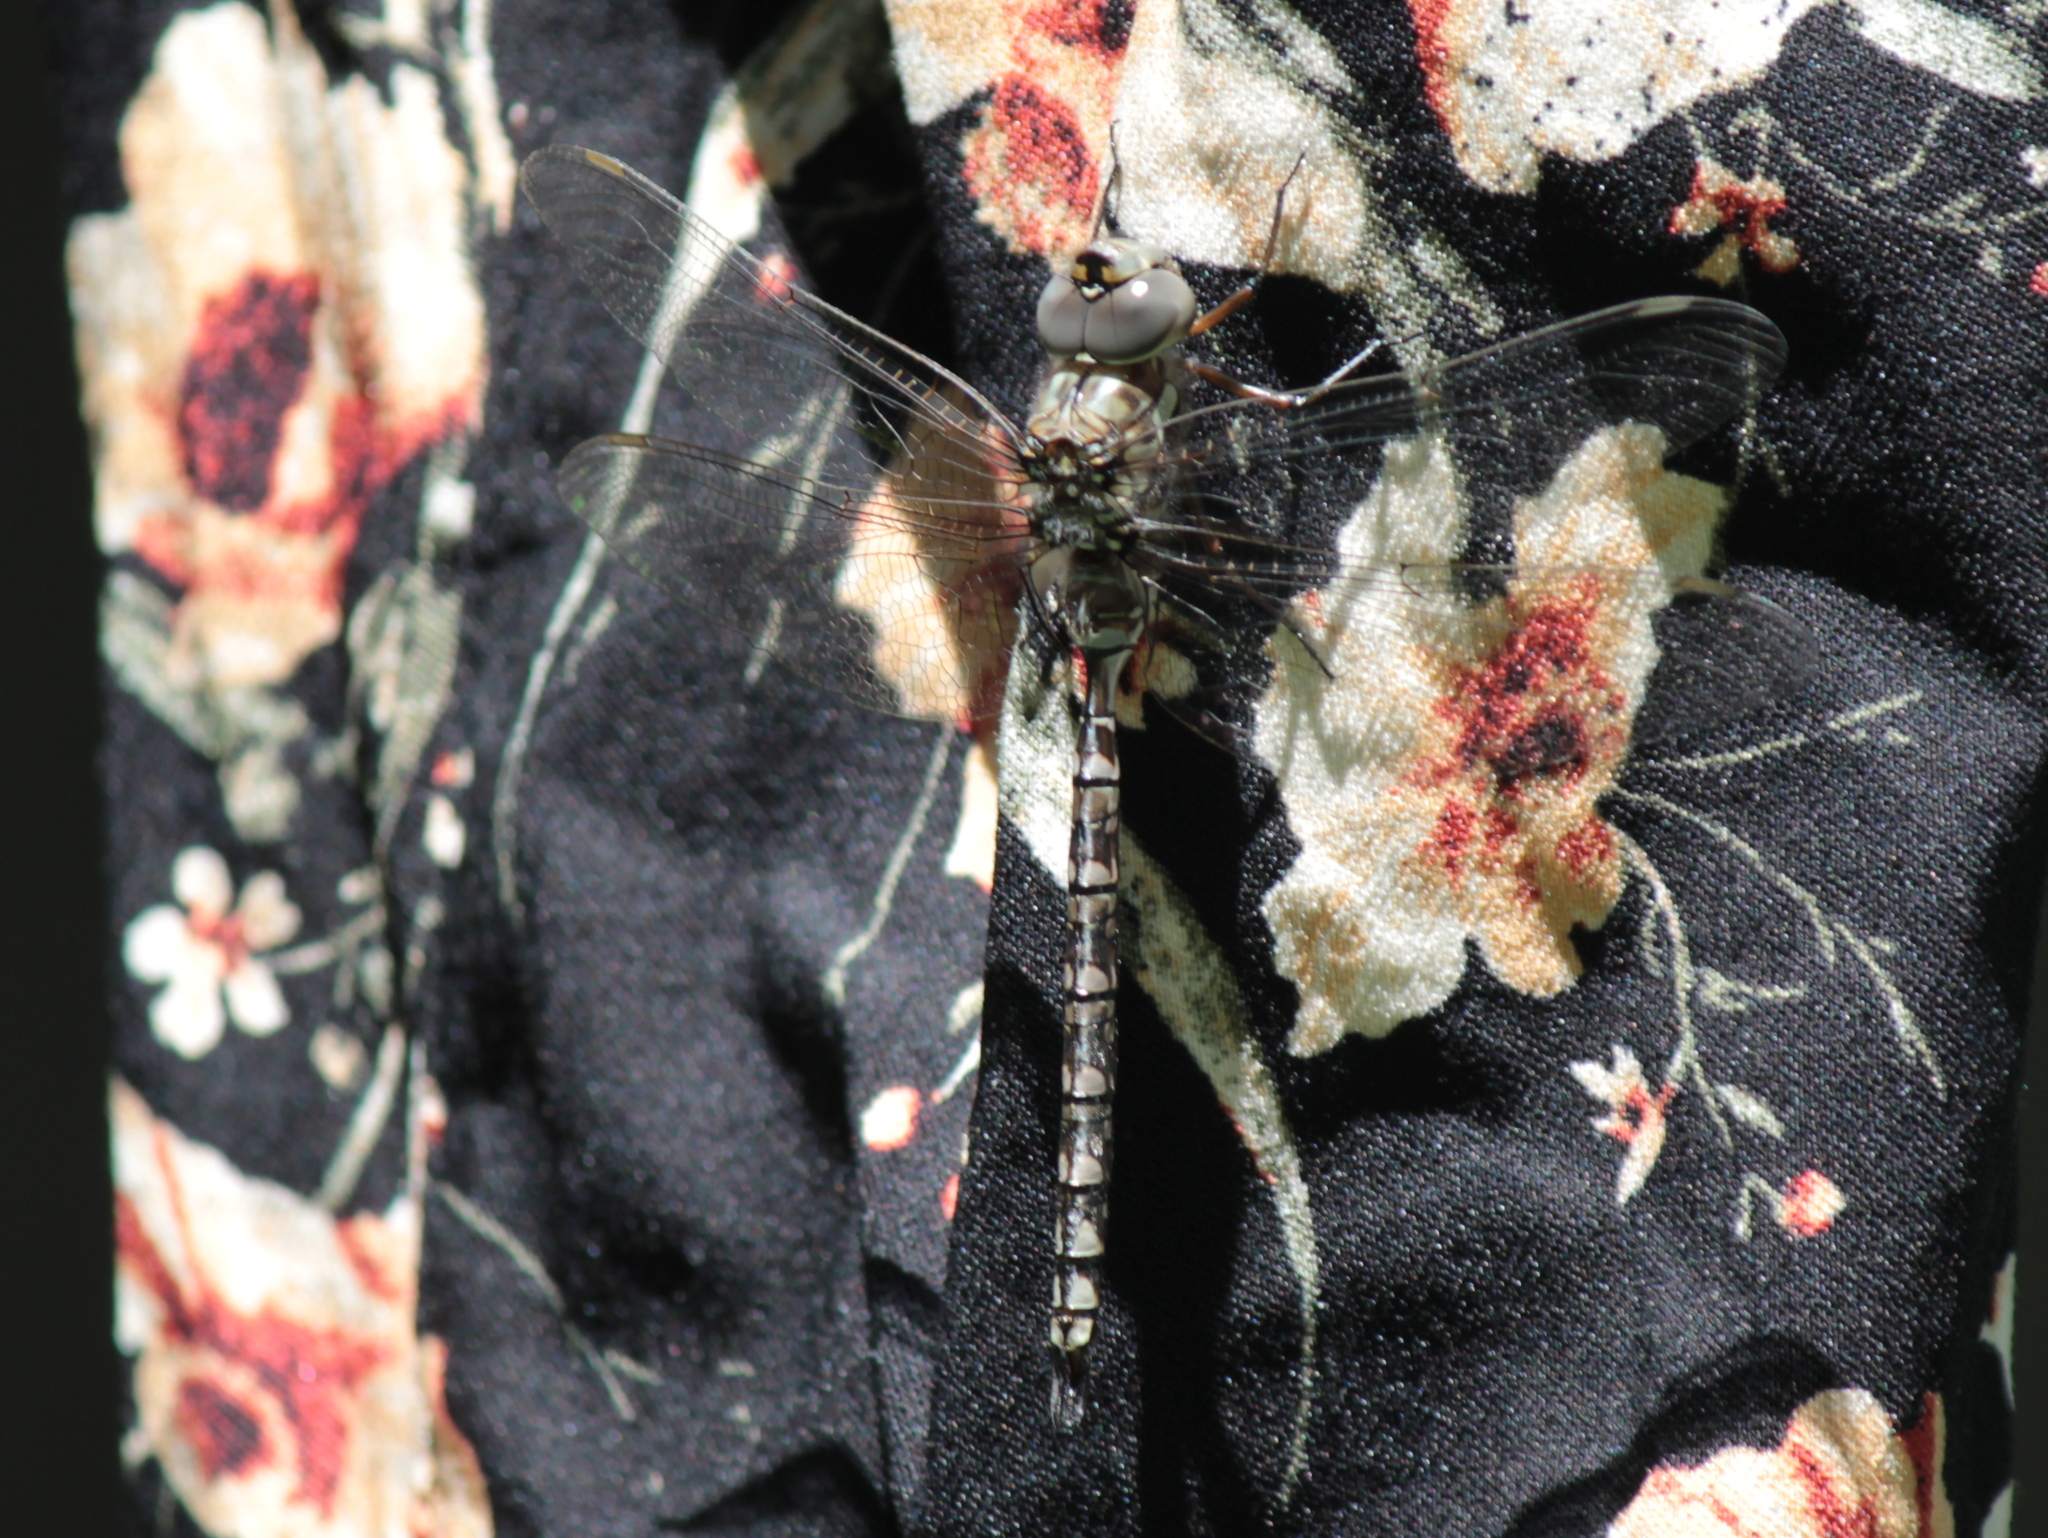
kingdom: Animalia
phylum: Arthropoda
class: Insecta
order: Odonata
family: Aeshnidae
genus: Aeshna
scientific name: Aeshna canadensis
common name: Canada darner
